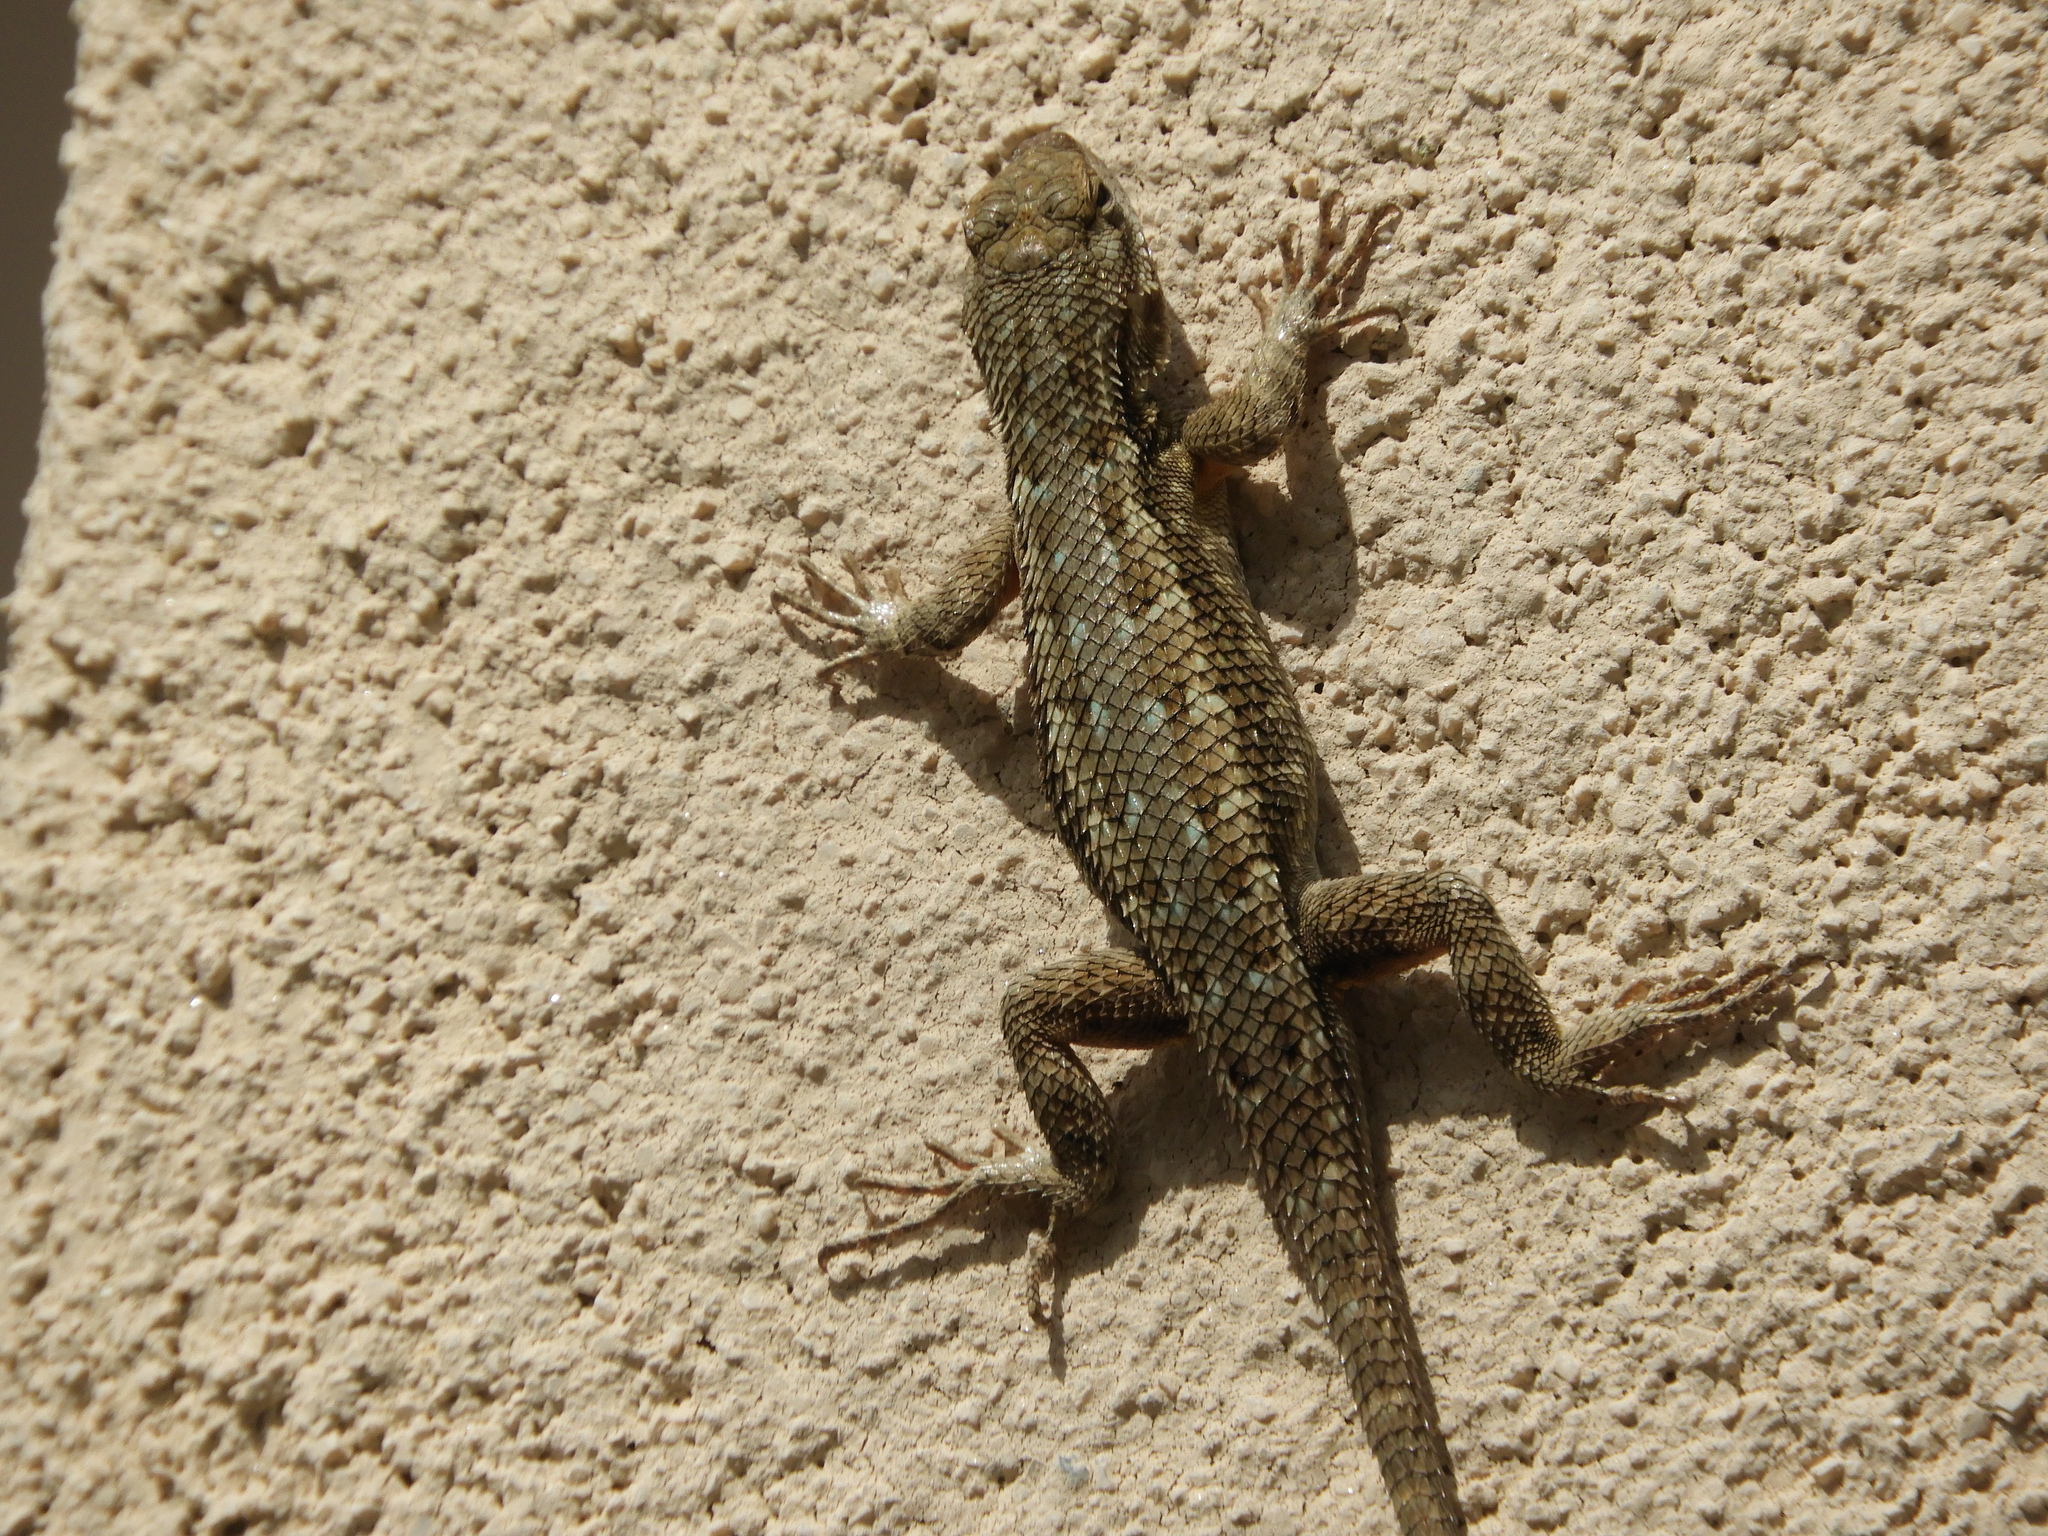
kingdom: Animalia
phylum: Chordata
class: Squamata
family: Phrynosomatidae
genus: Sceloporus
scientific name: Sceloporus occidentalis
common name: Western fence lizard
